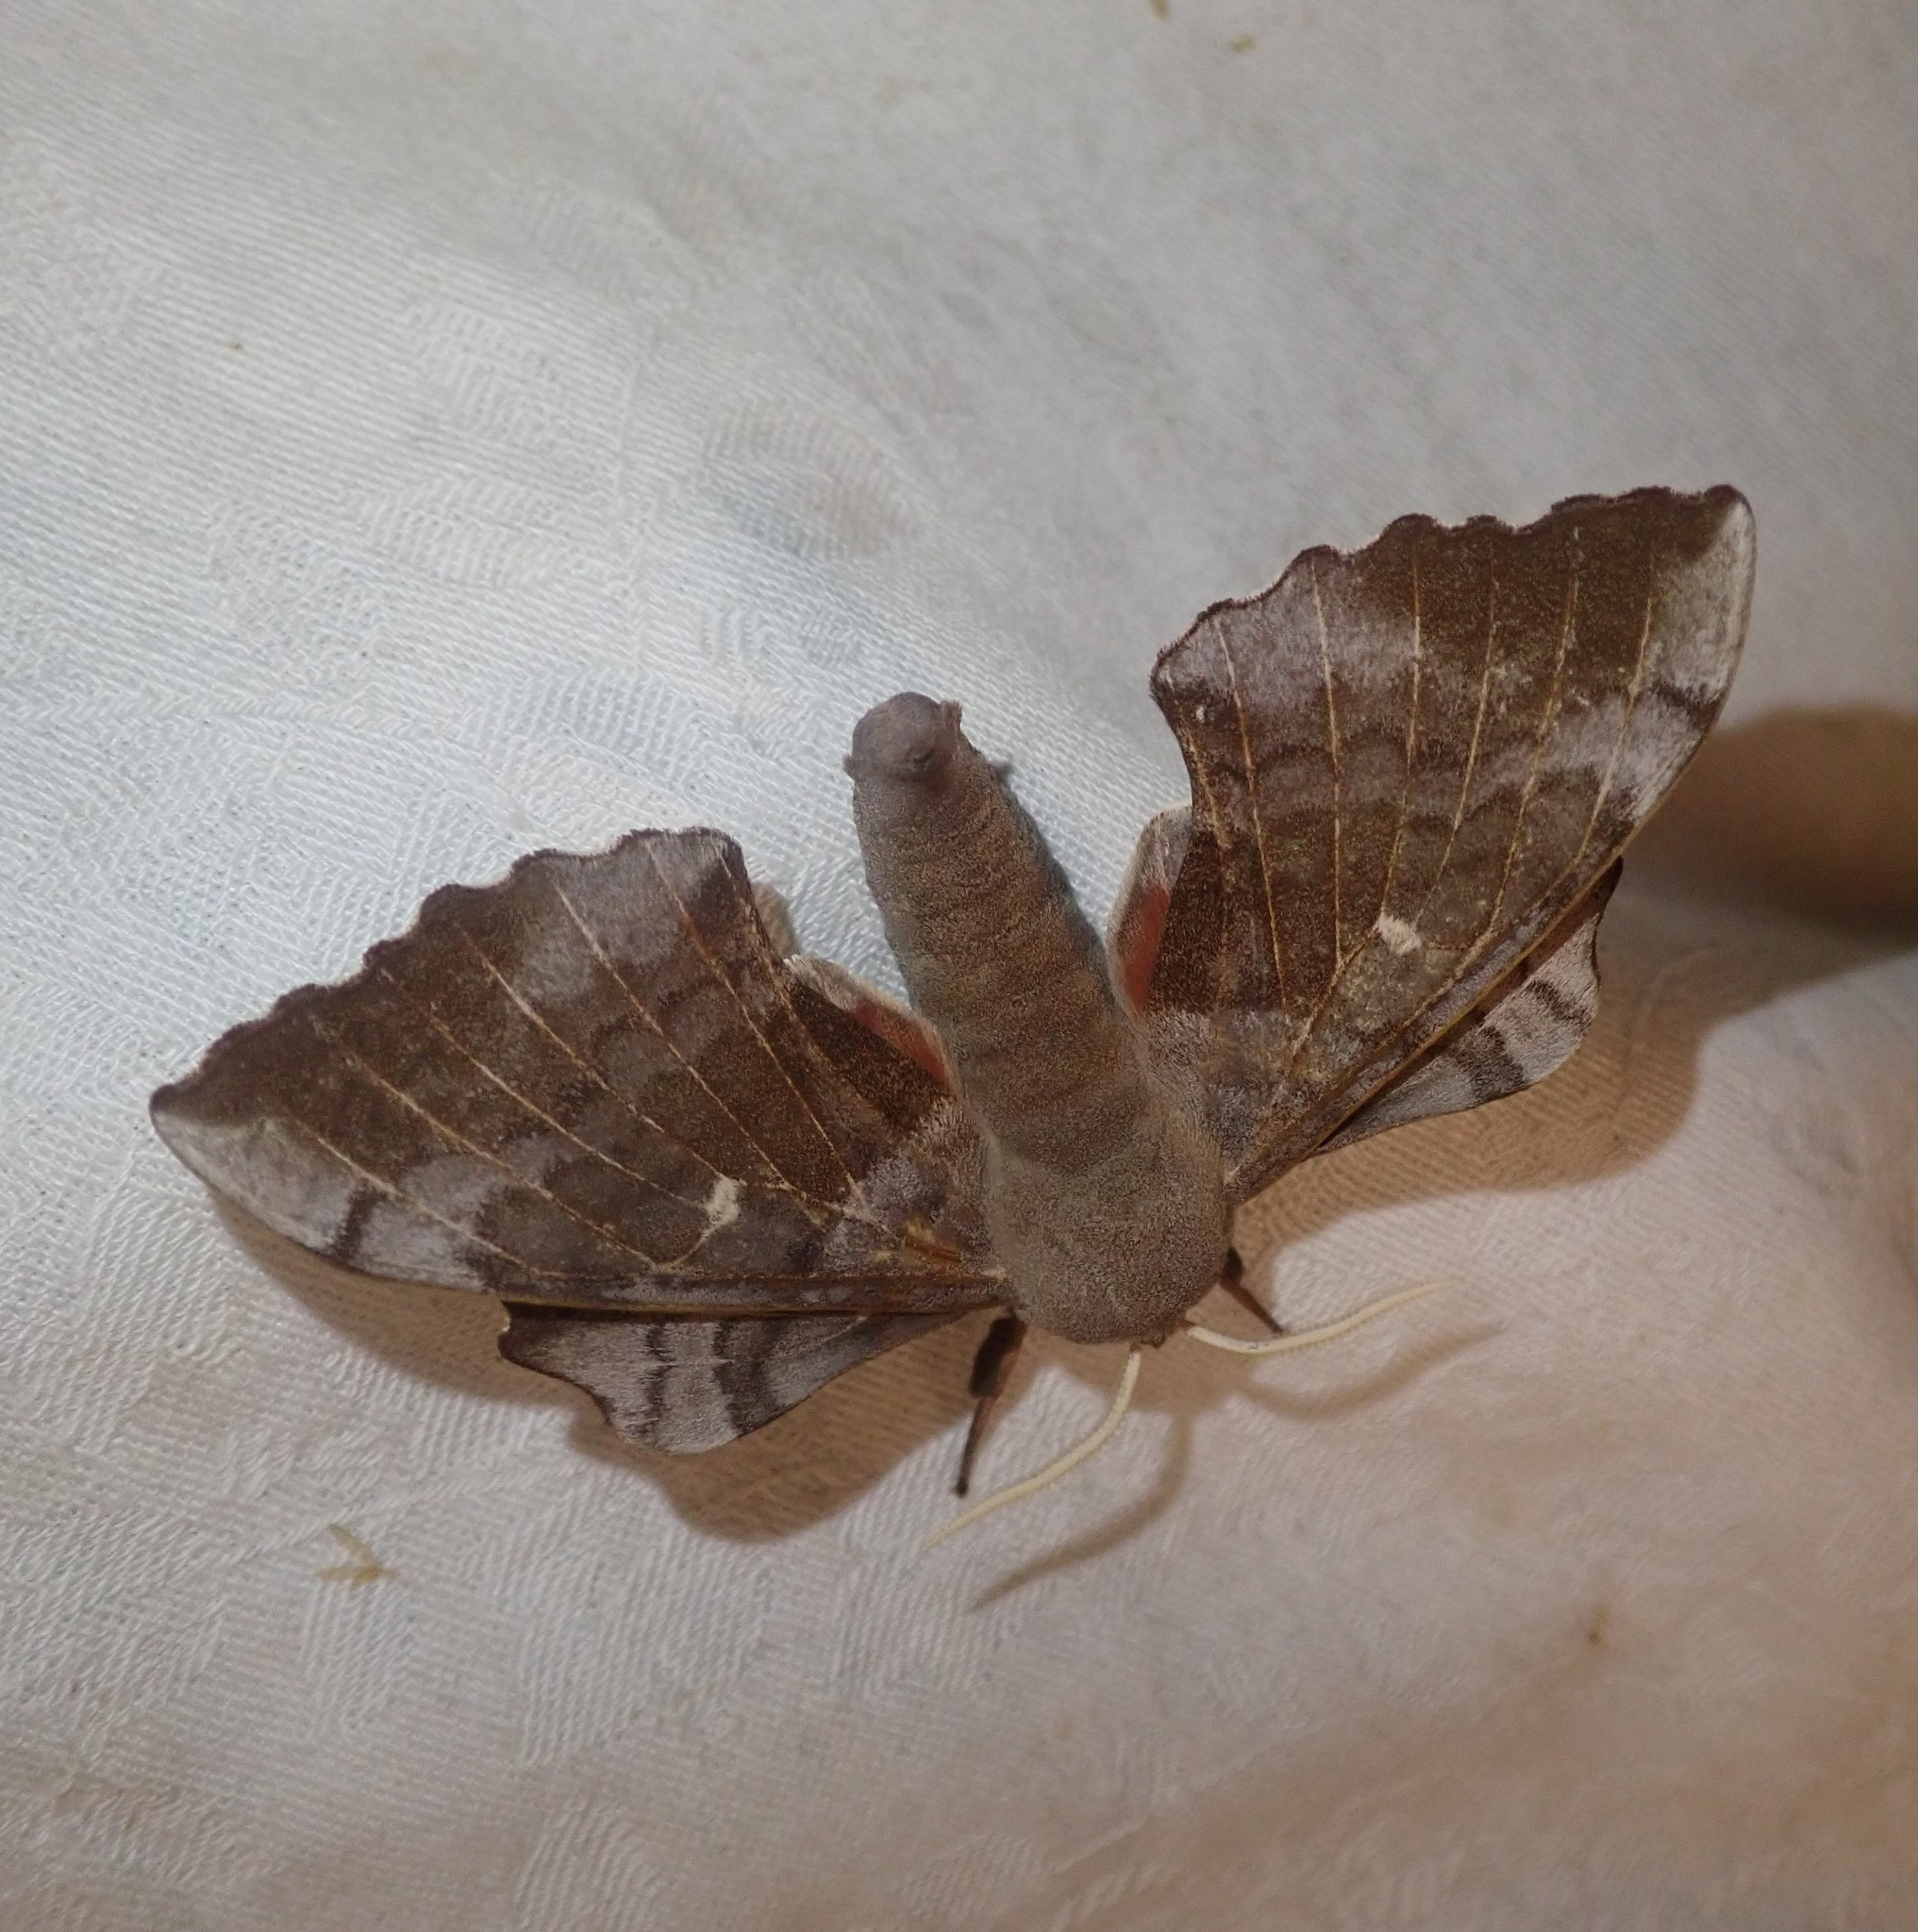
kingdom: Animalia
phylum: Arthropoda
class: Insecta
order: Lepidoptera
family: Sphingidae
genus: Laothoe
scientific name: Laothoe populi
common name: Poplar hawk-moth
